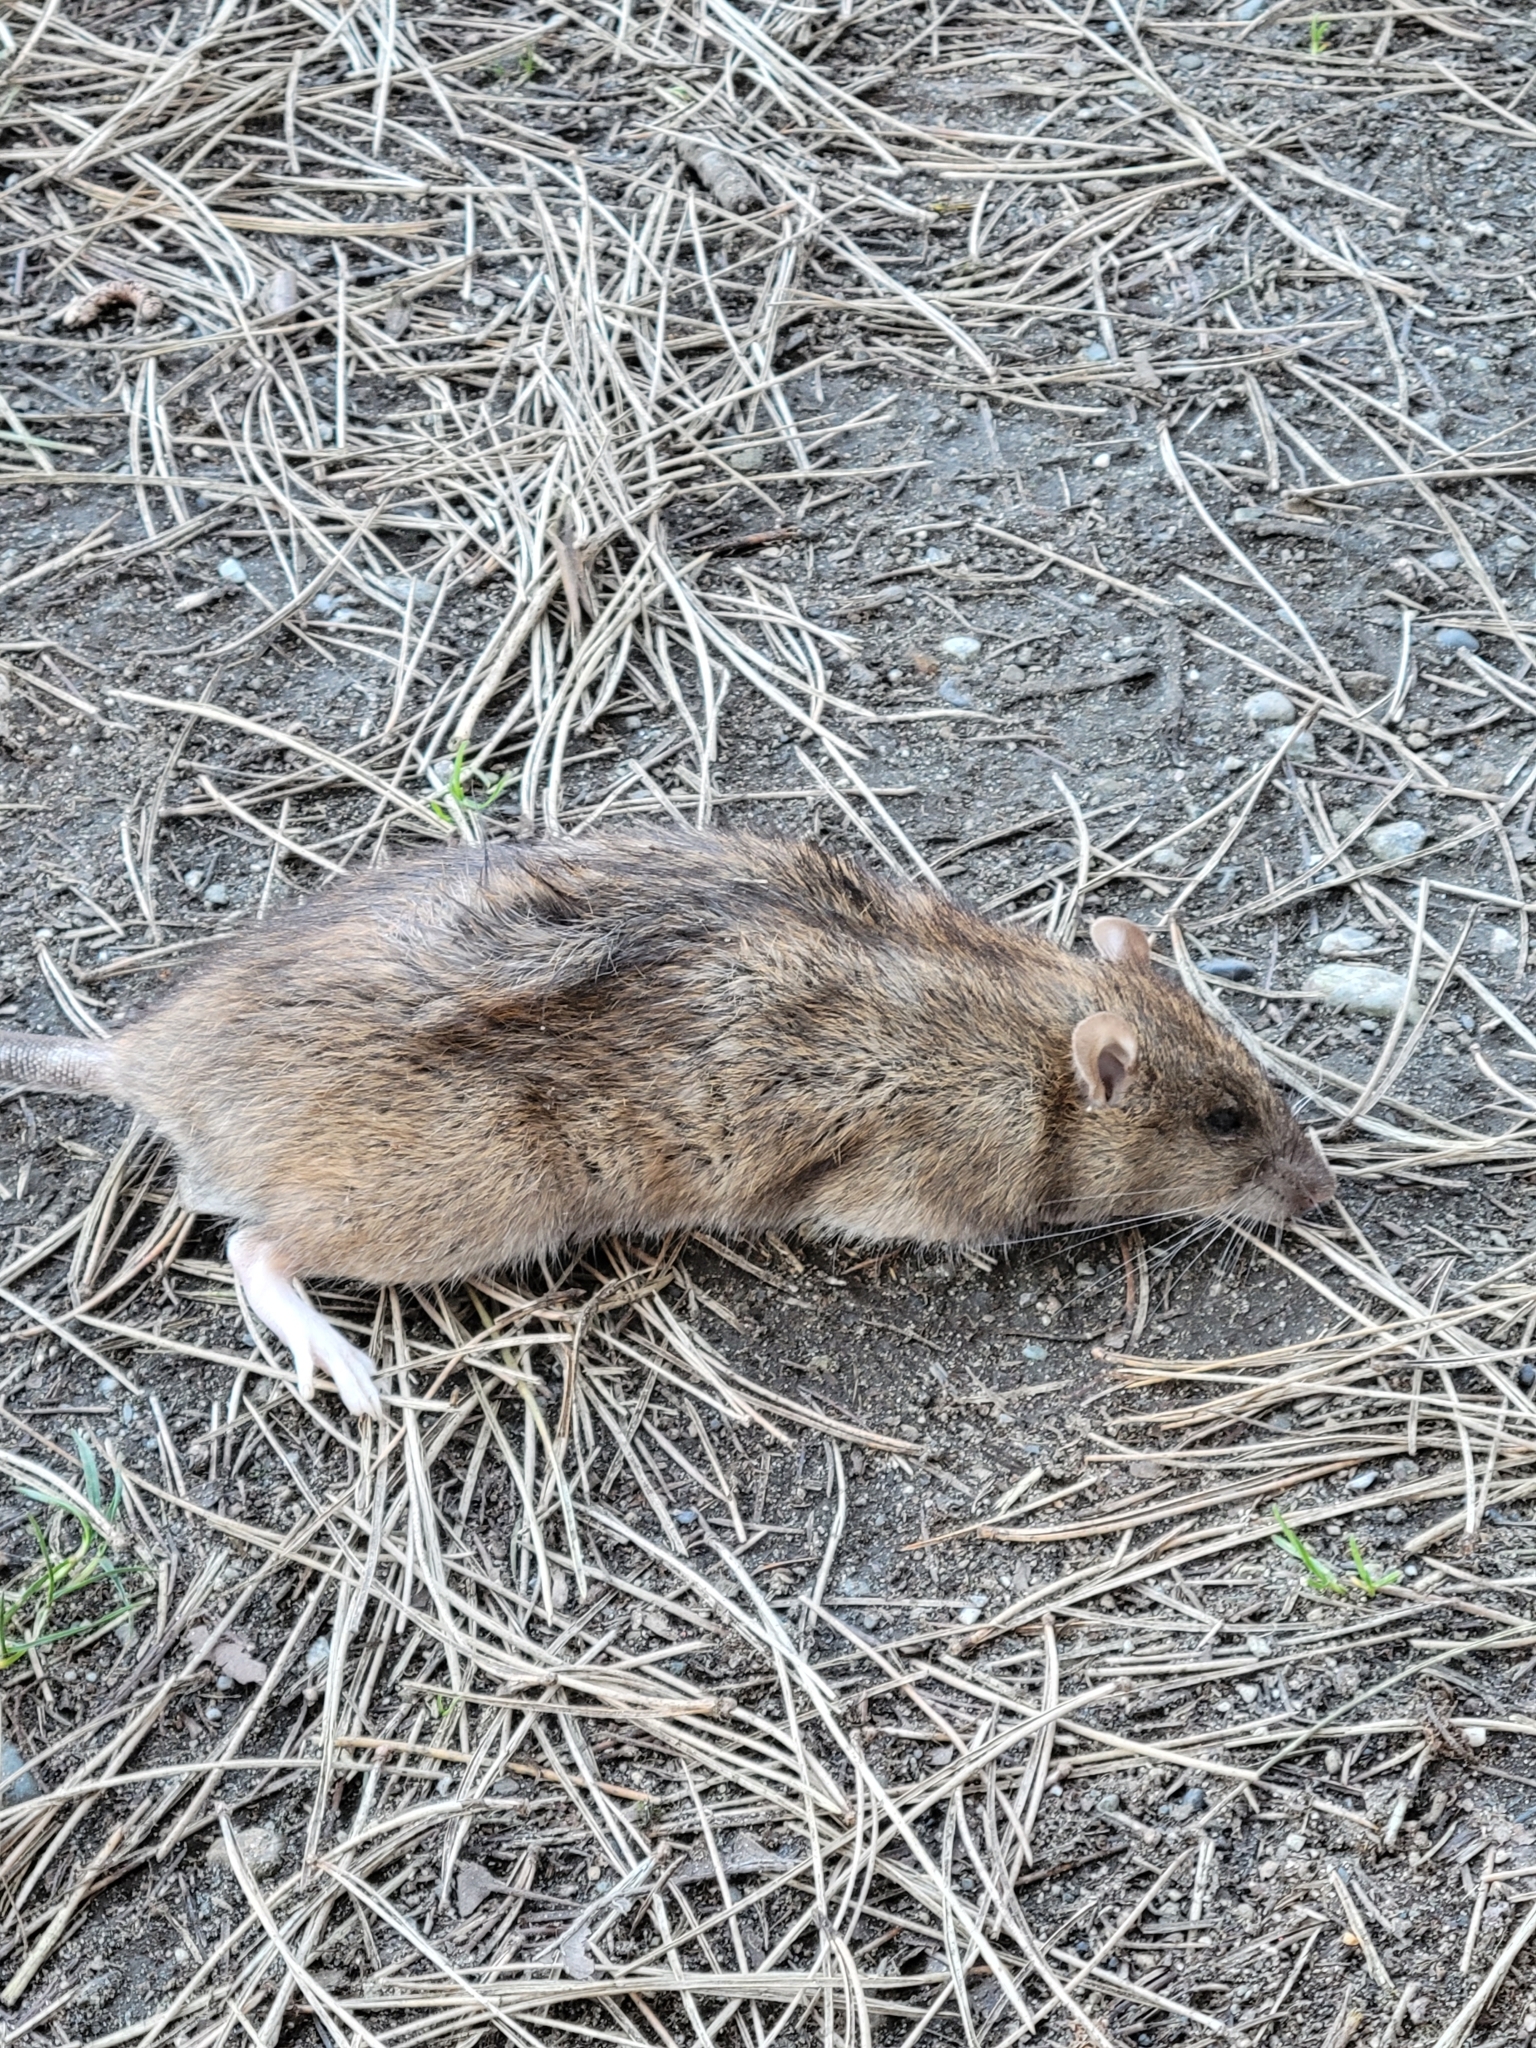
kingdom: Animalia
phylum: Chordata
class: Mammalia
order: Rodentia
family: Muridae
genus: Rattus
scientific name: Rattus norvegicus
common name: Brown rat
